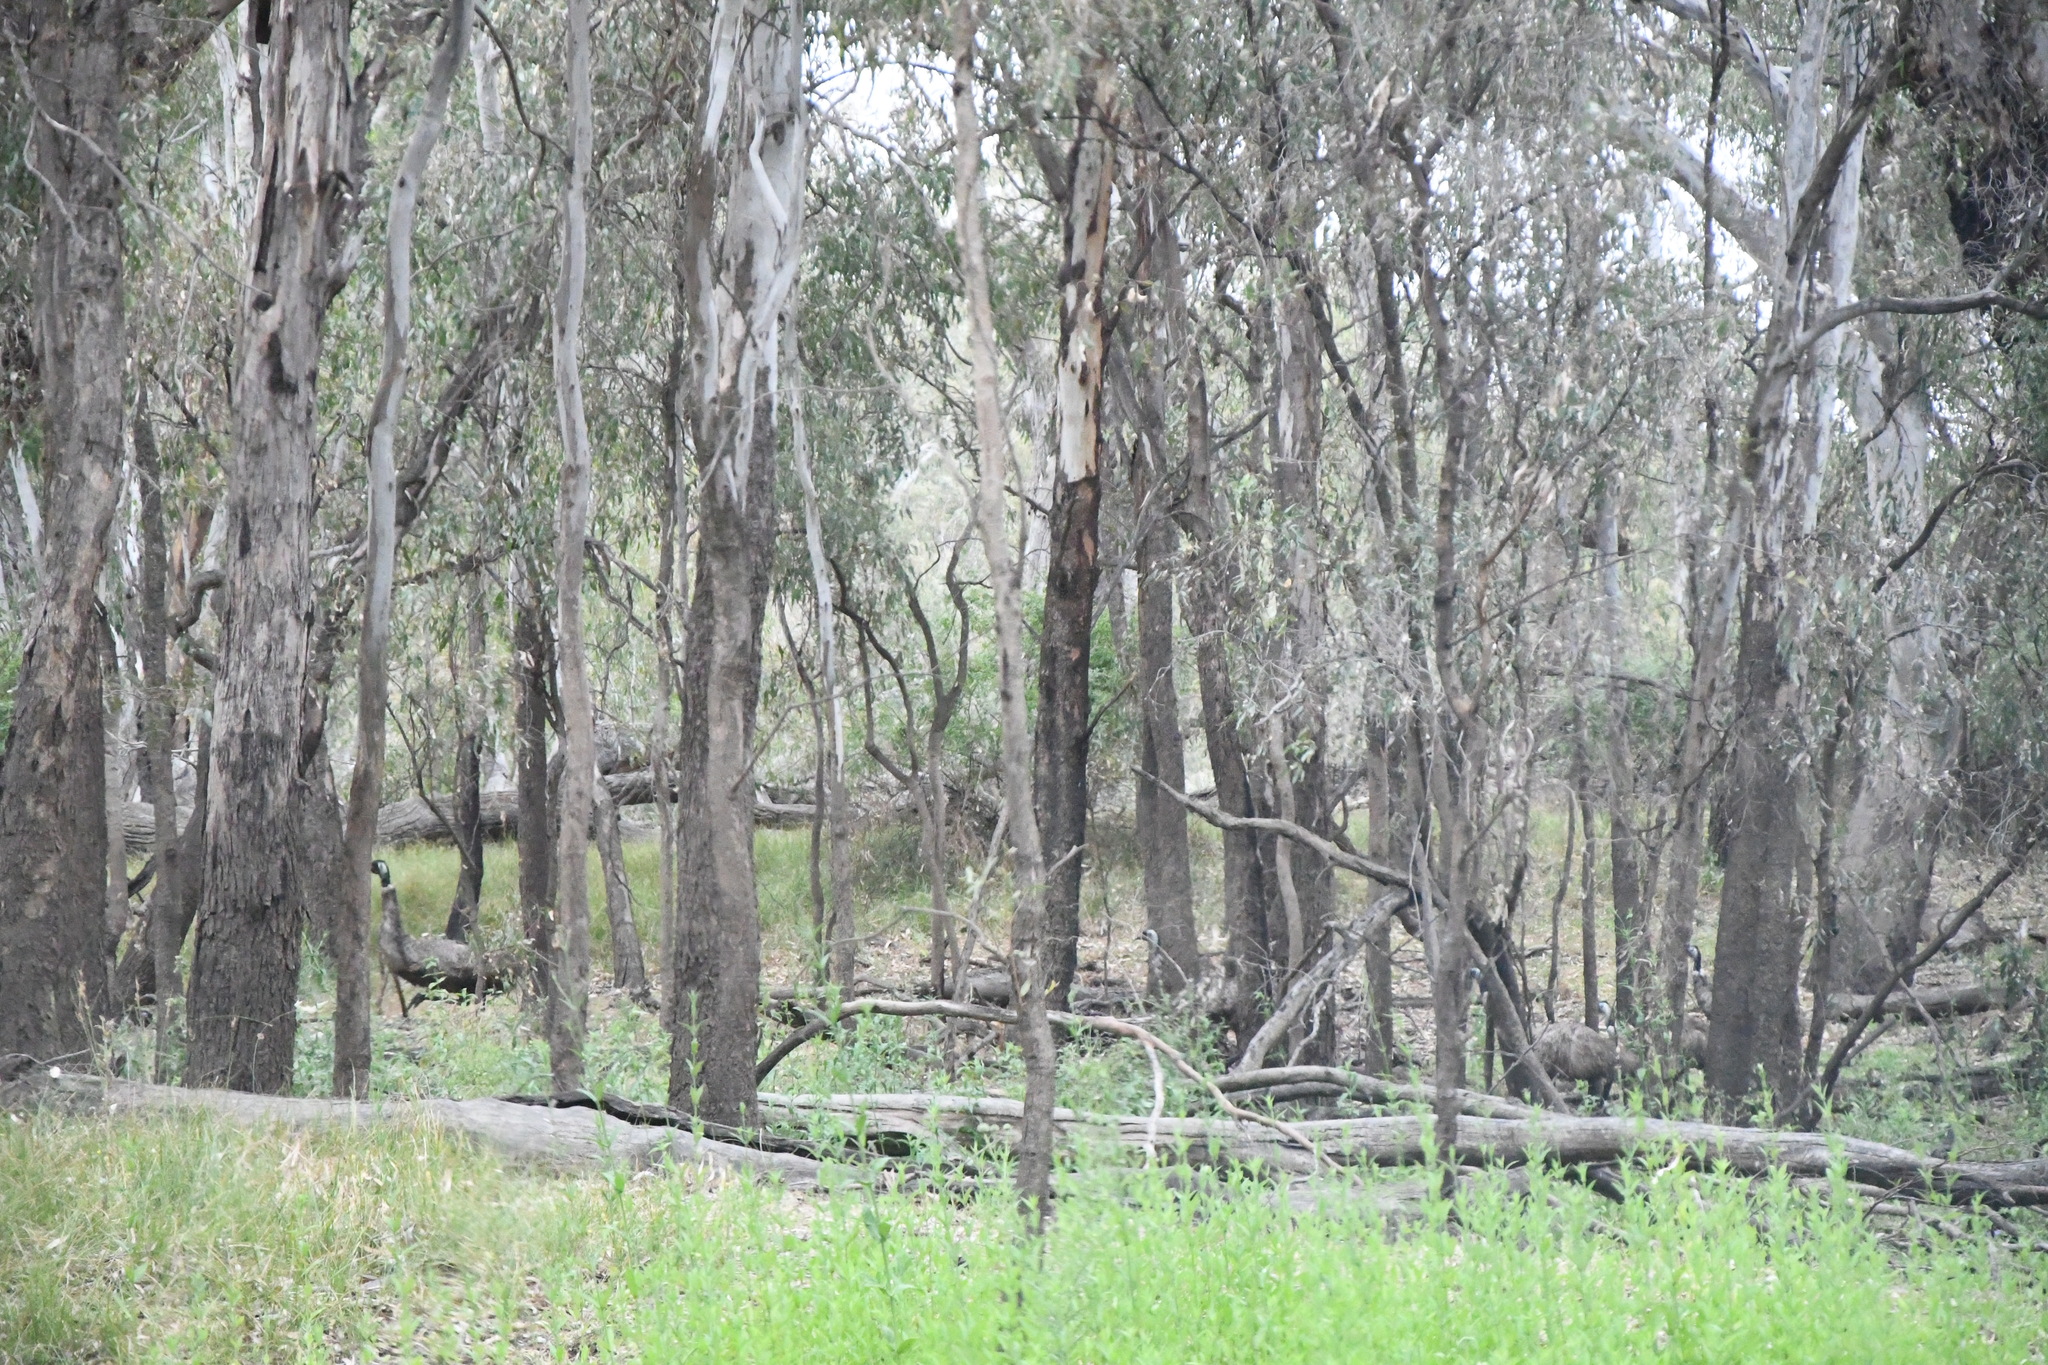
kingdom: Animalia
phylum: Chordata
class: Aves
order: Casuariiformes
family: Dromaiidae
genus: Dromaius
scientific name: Dromaius novaehollandiae
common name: Emu
